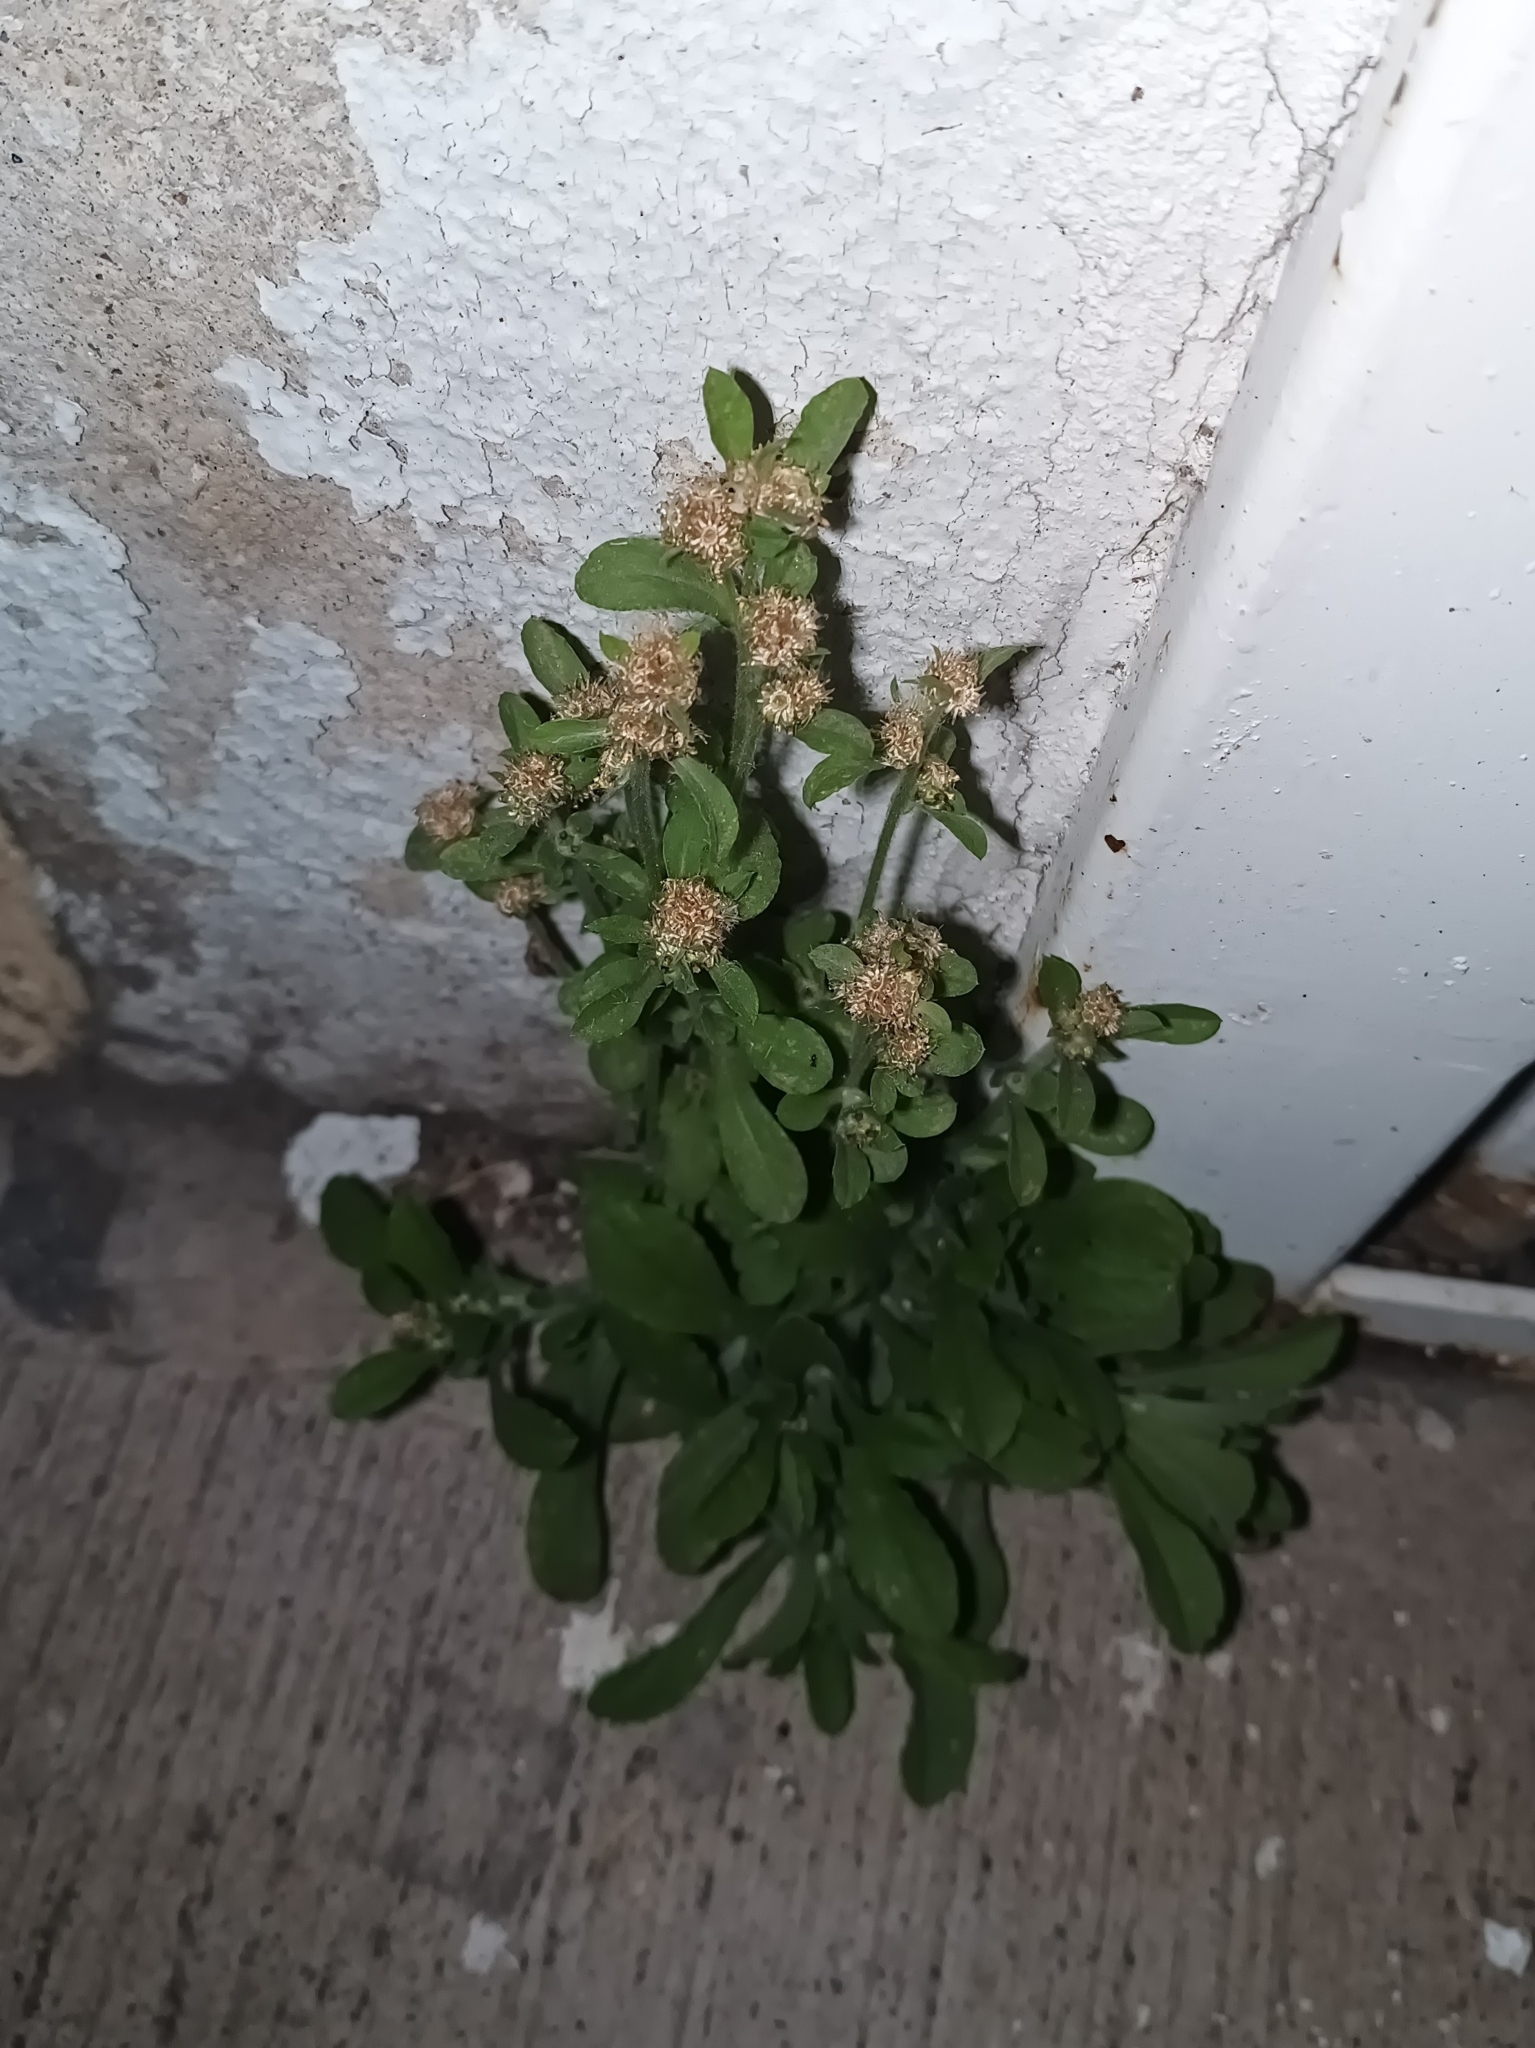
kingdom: Plantae
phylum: Tracheophyta
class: Magnoliopsida
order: Asterales
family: Asteraceae
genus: Gamochaeta
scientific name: Gamochaeta pensylvanica
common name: Pennsylvania everlasting
